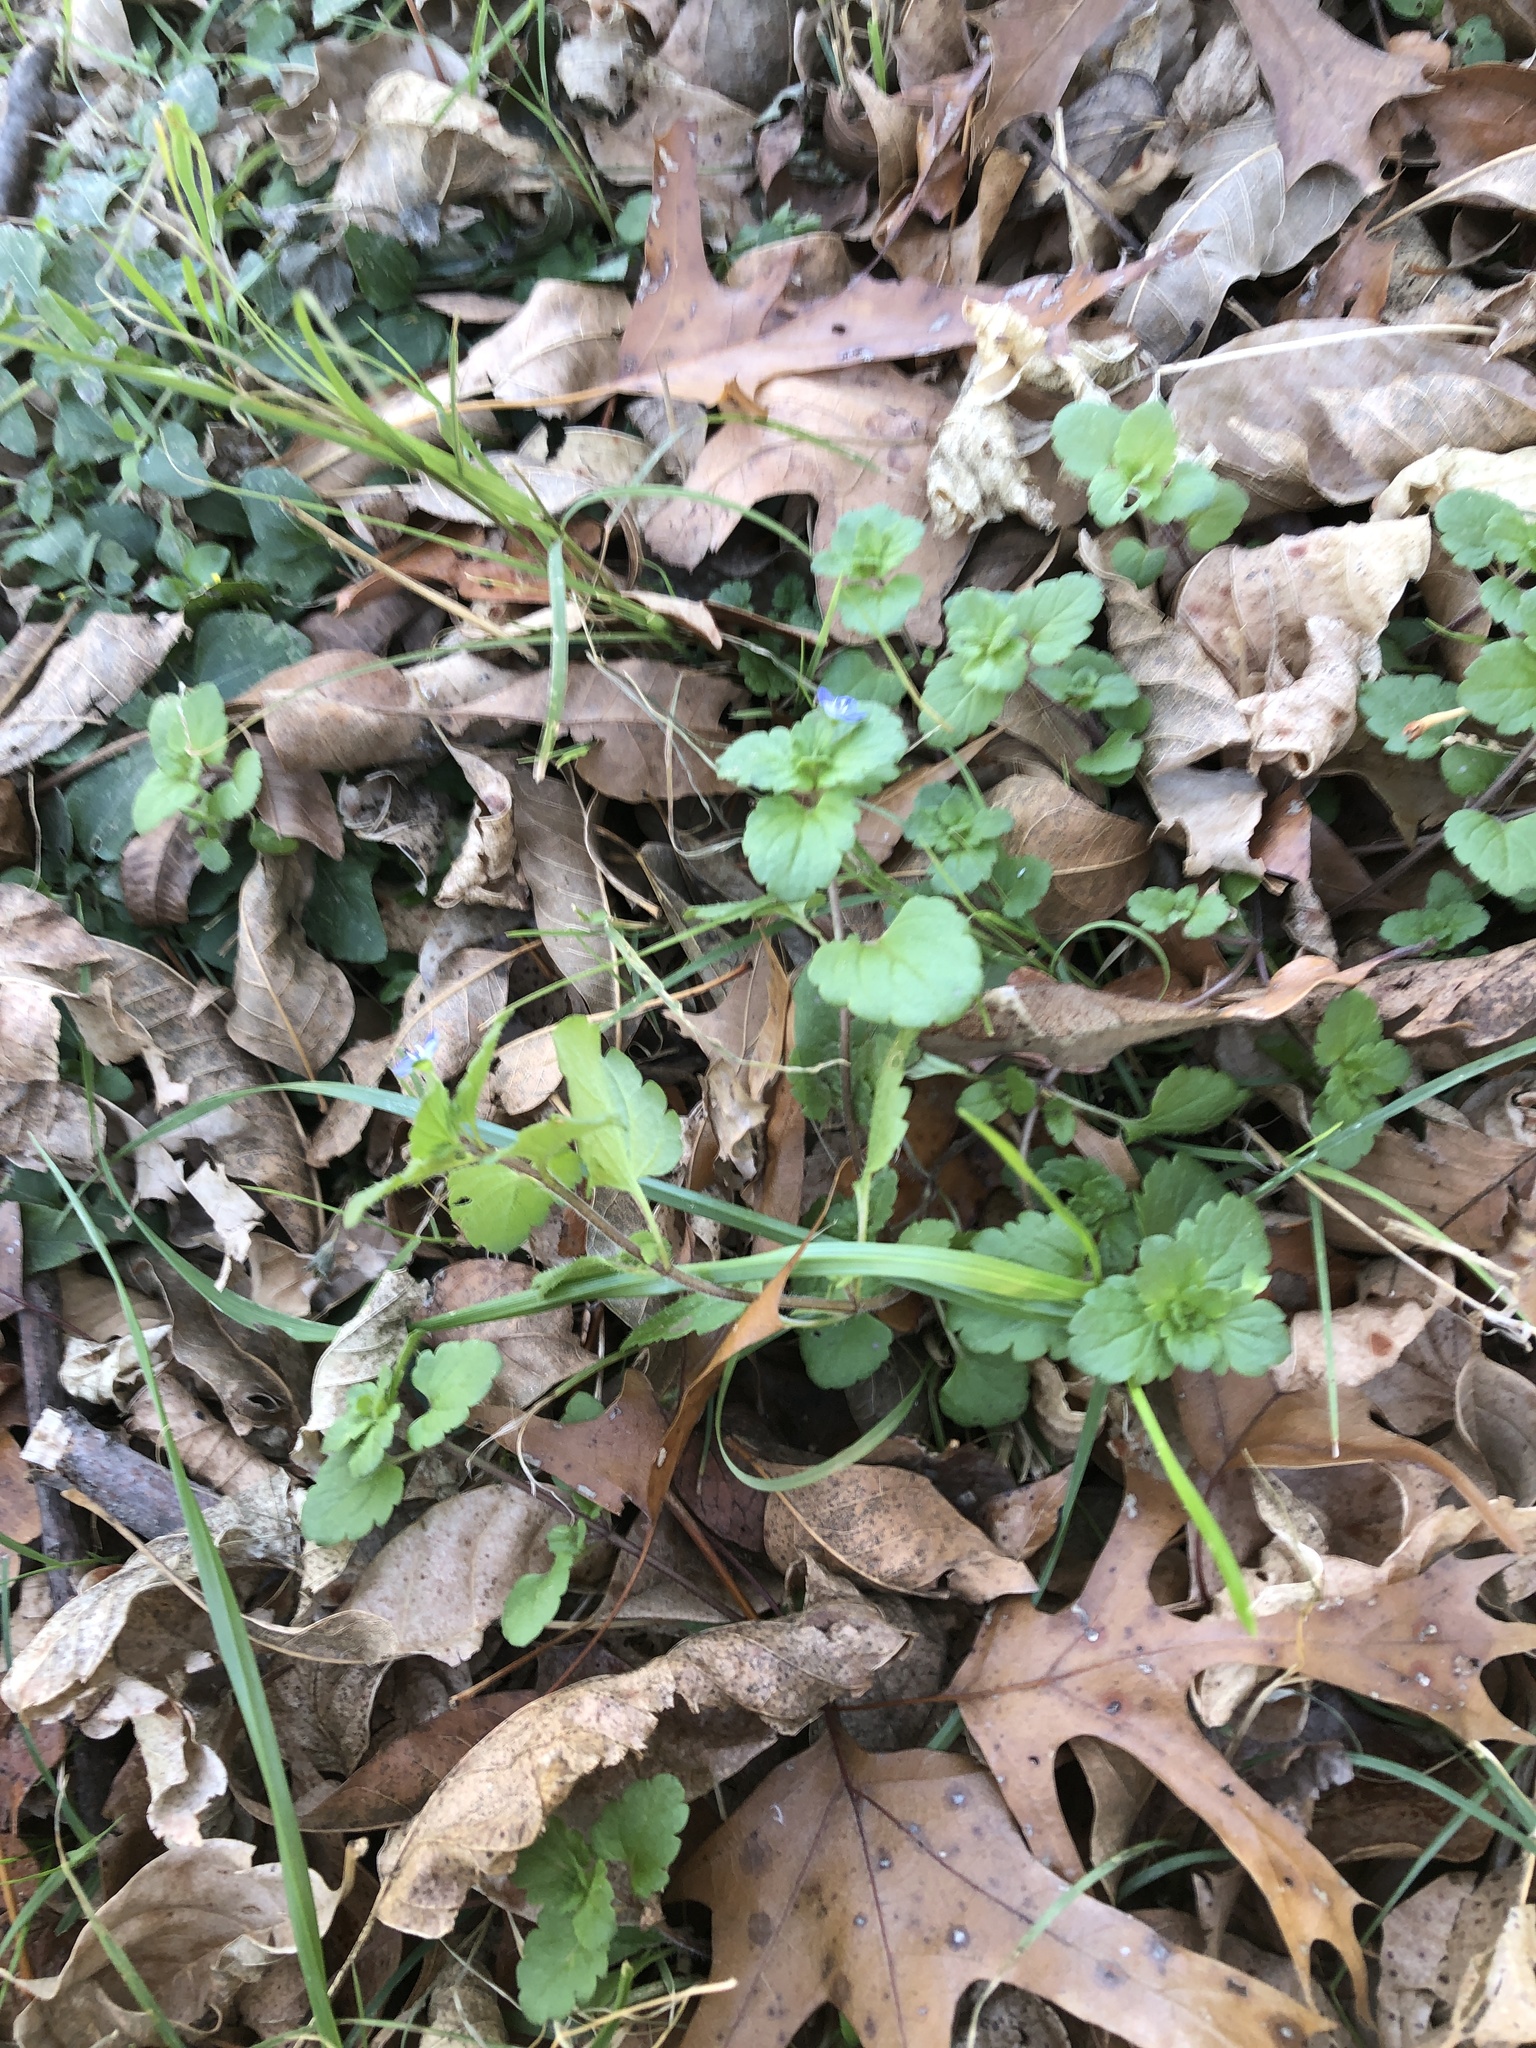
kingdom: Plantae
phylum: Tracheophyta
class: Magnoliopsida
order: Lamiales
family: Plantaginaceae
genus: Veronica
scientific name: Veronica persica
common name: Common field-speedwell
